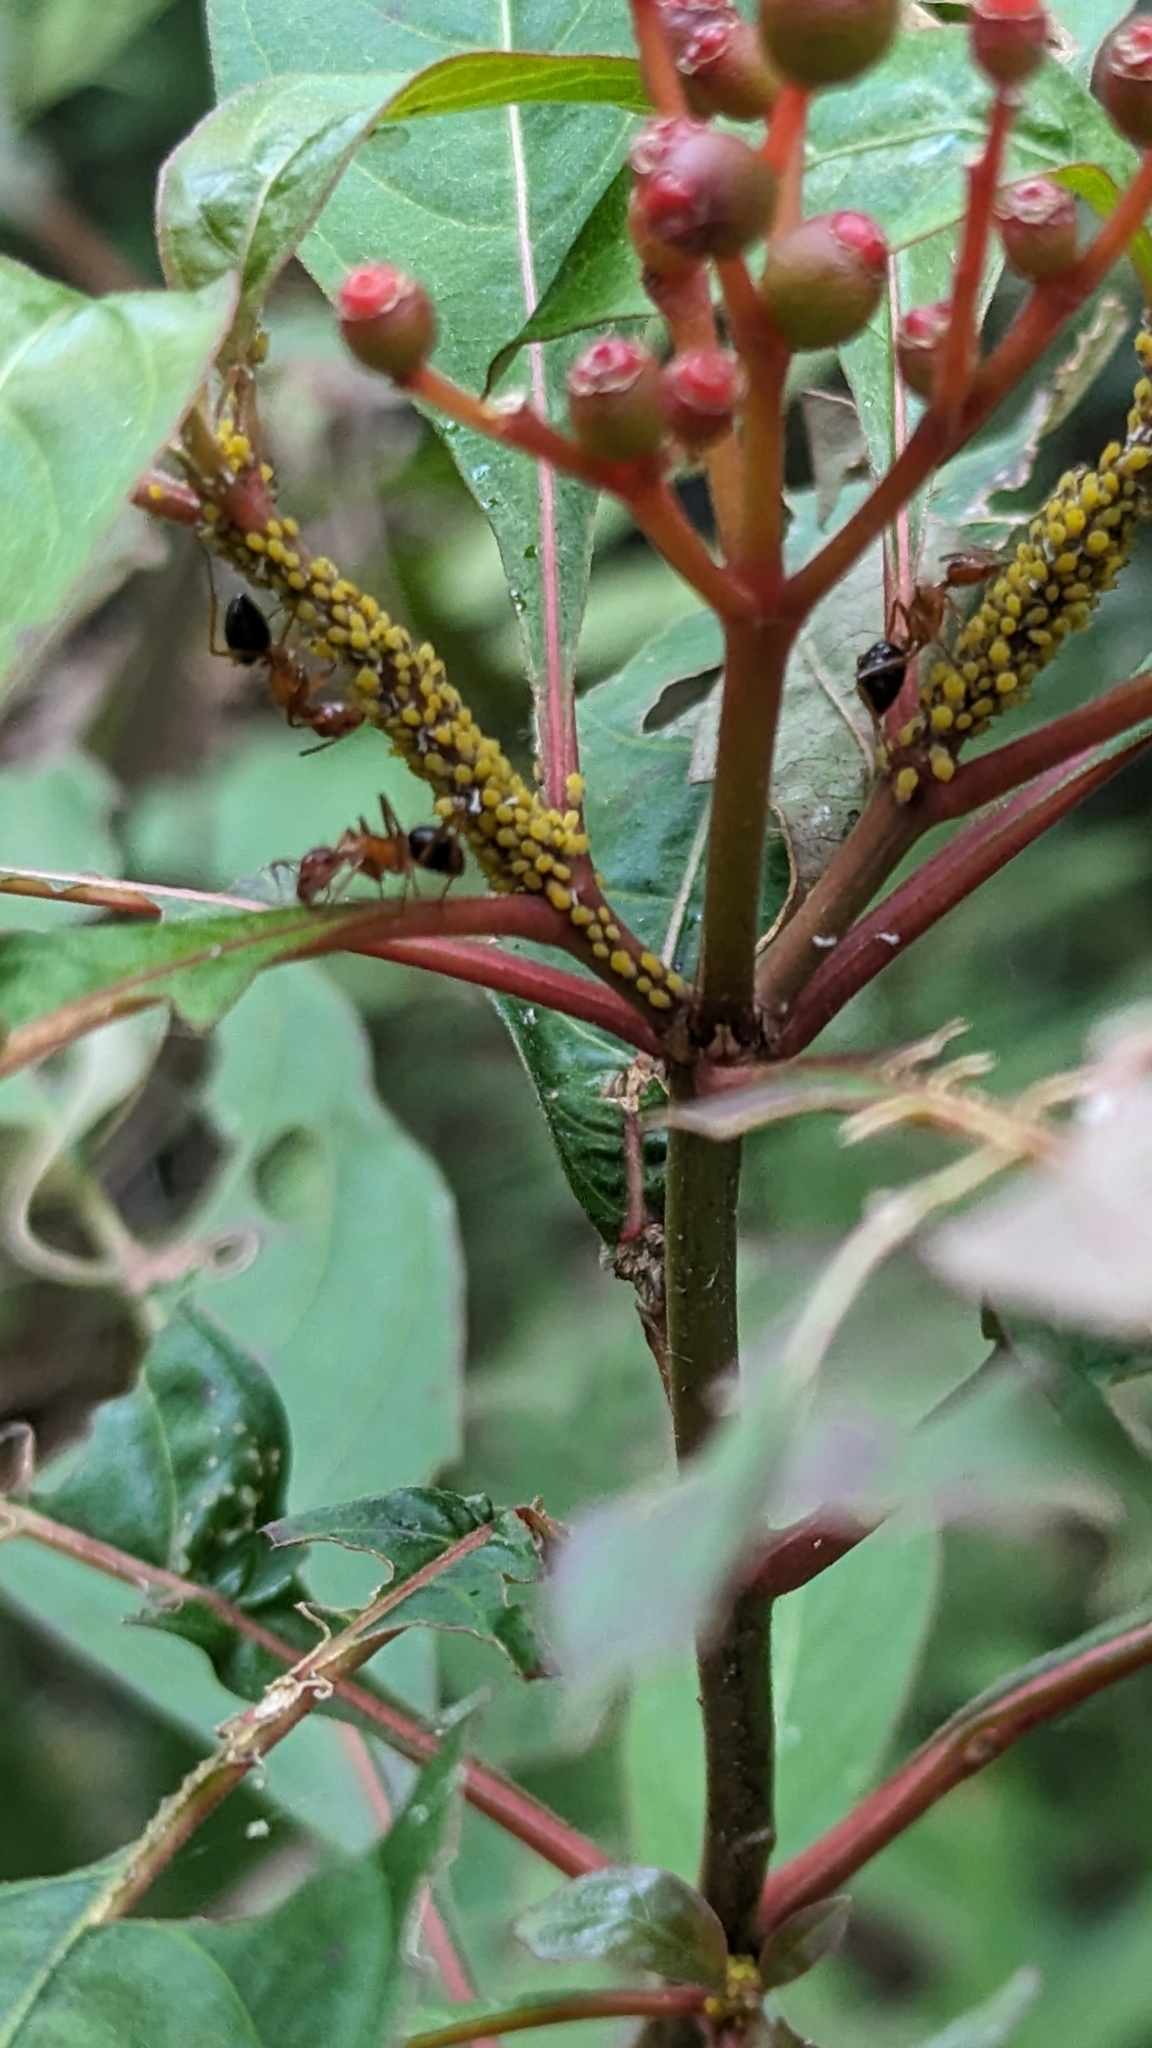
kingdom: Animalia
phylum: Arthropoda
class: Insecta
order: Hymenoptera
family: Formicidae
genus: Camponotus
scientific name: Camponotus floridanus
